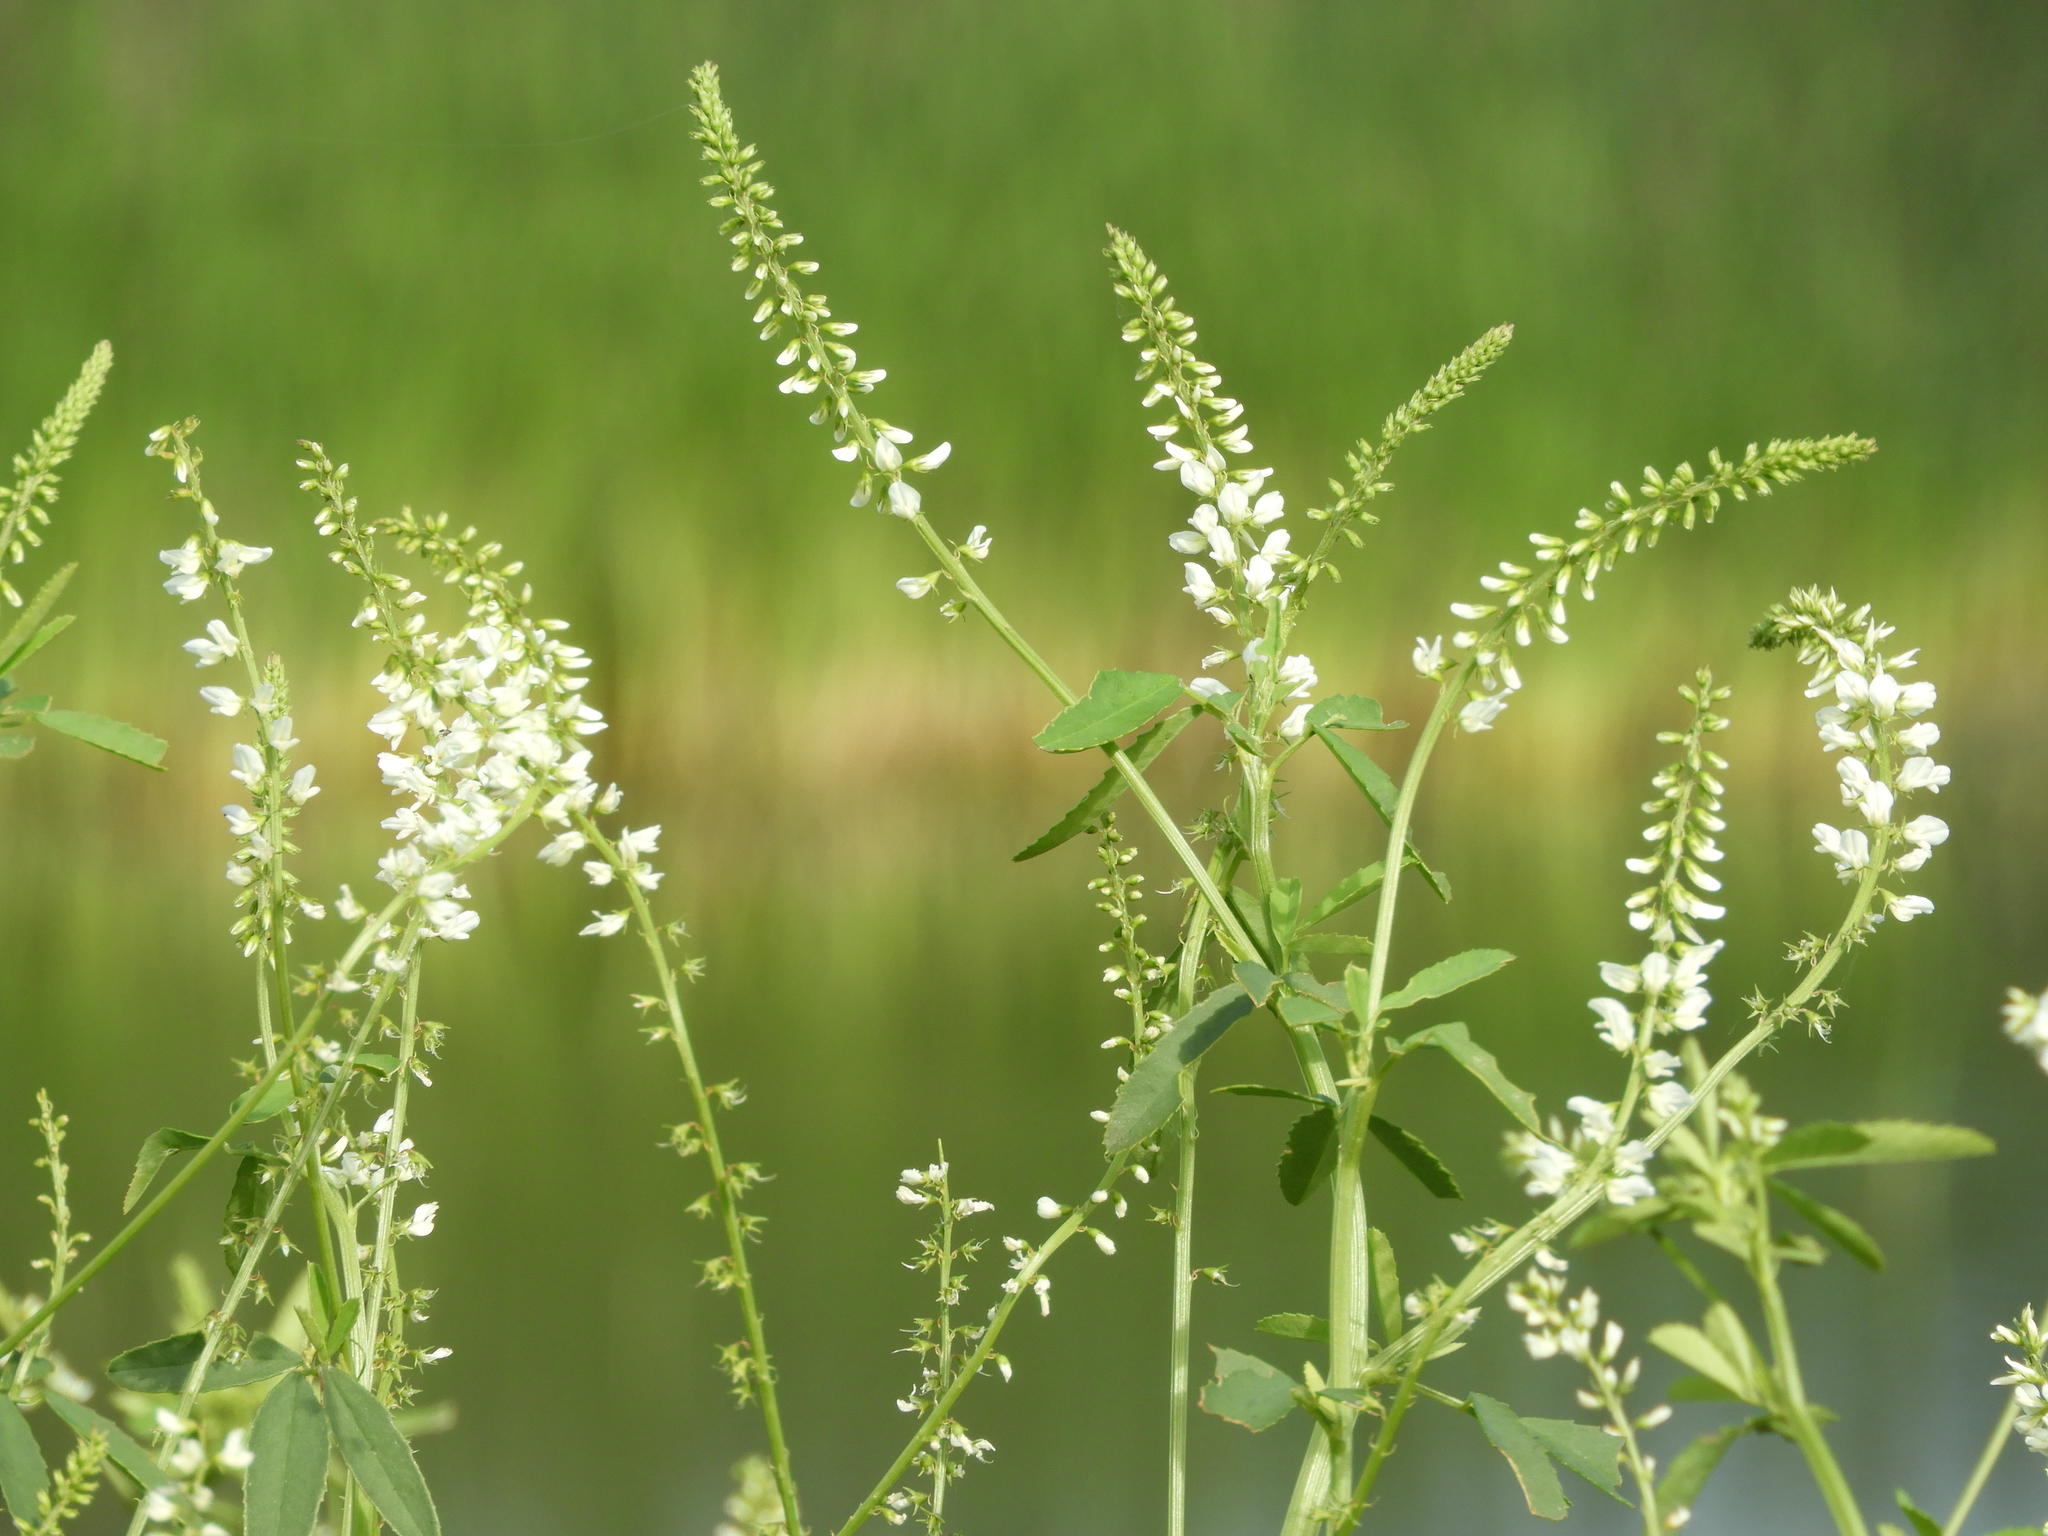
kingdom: Plantae
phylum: Tracheophyta
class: Magnoliopsida
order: Fabales
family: Fabaceae
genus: Melilotus
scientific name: Melilotus albus
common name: White melilot
